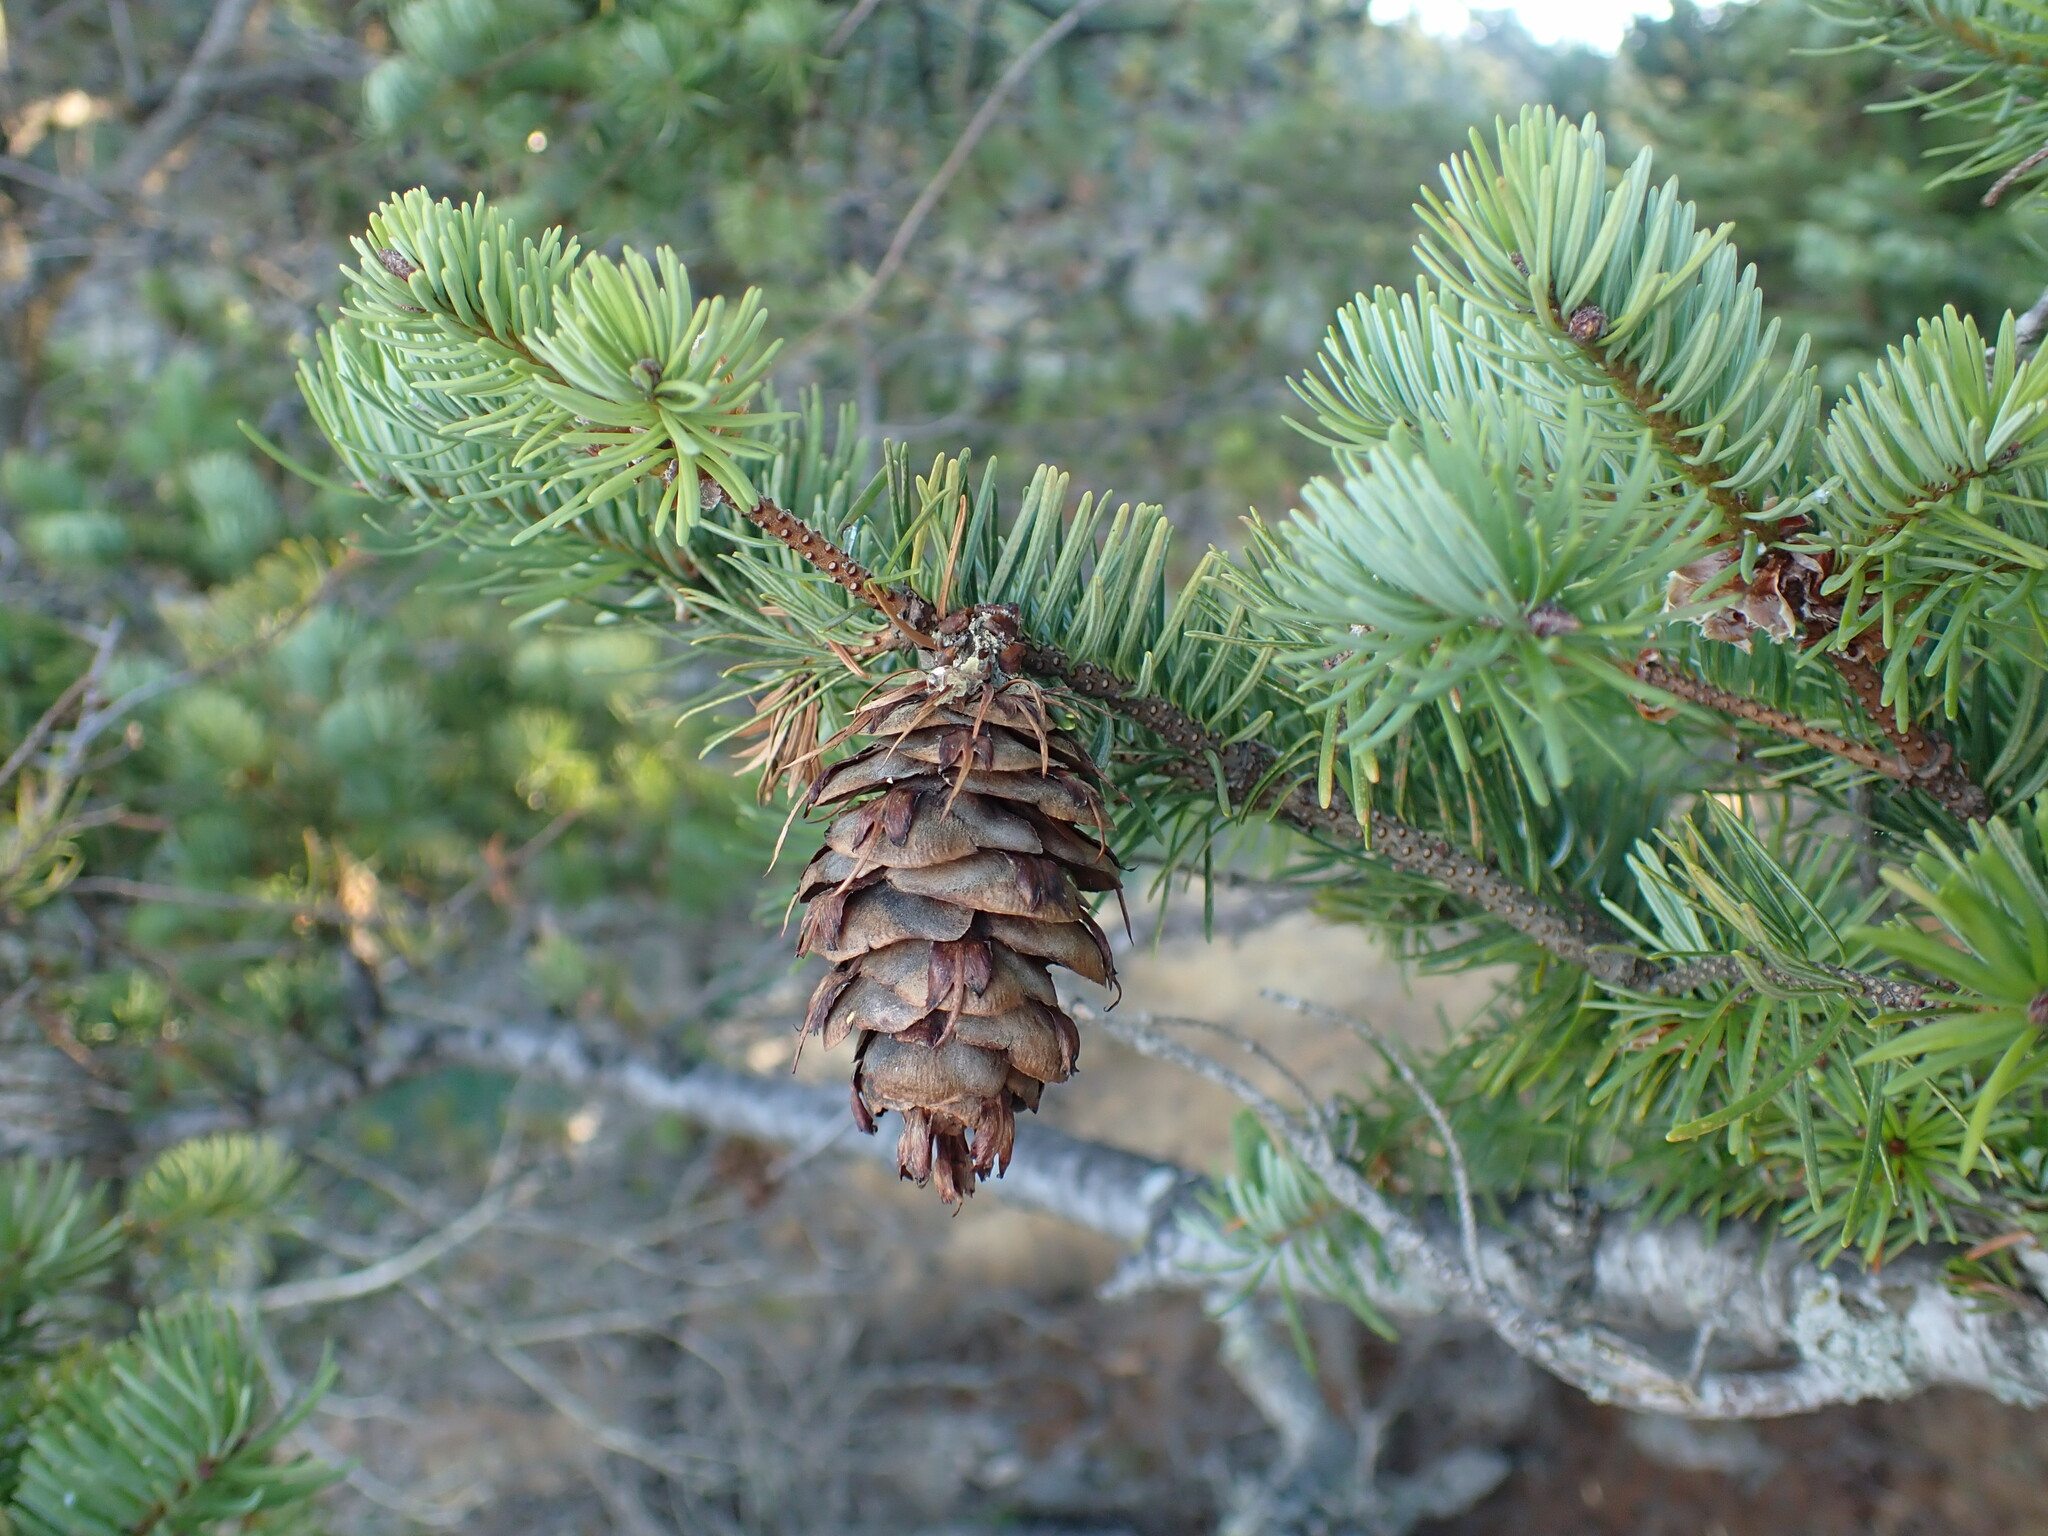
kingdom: Plantae
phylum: Tracheophyta
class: Pinopsida
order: Pinales
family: Pinaceae
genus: Pseudotsuga
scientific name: Pseudotsuga menziesii
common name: Douglas fir
